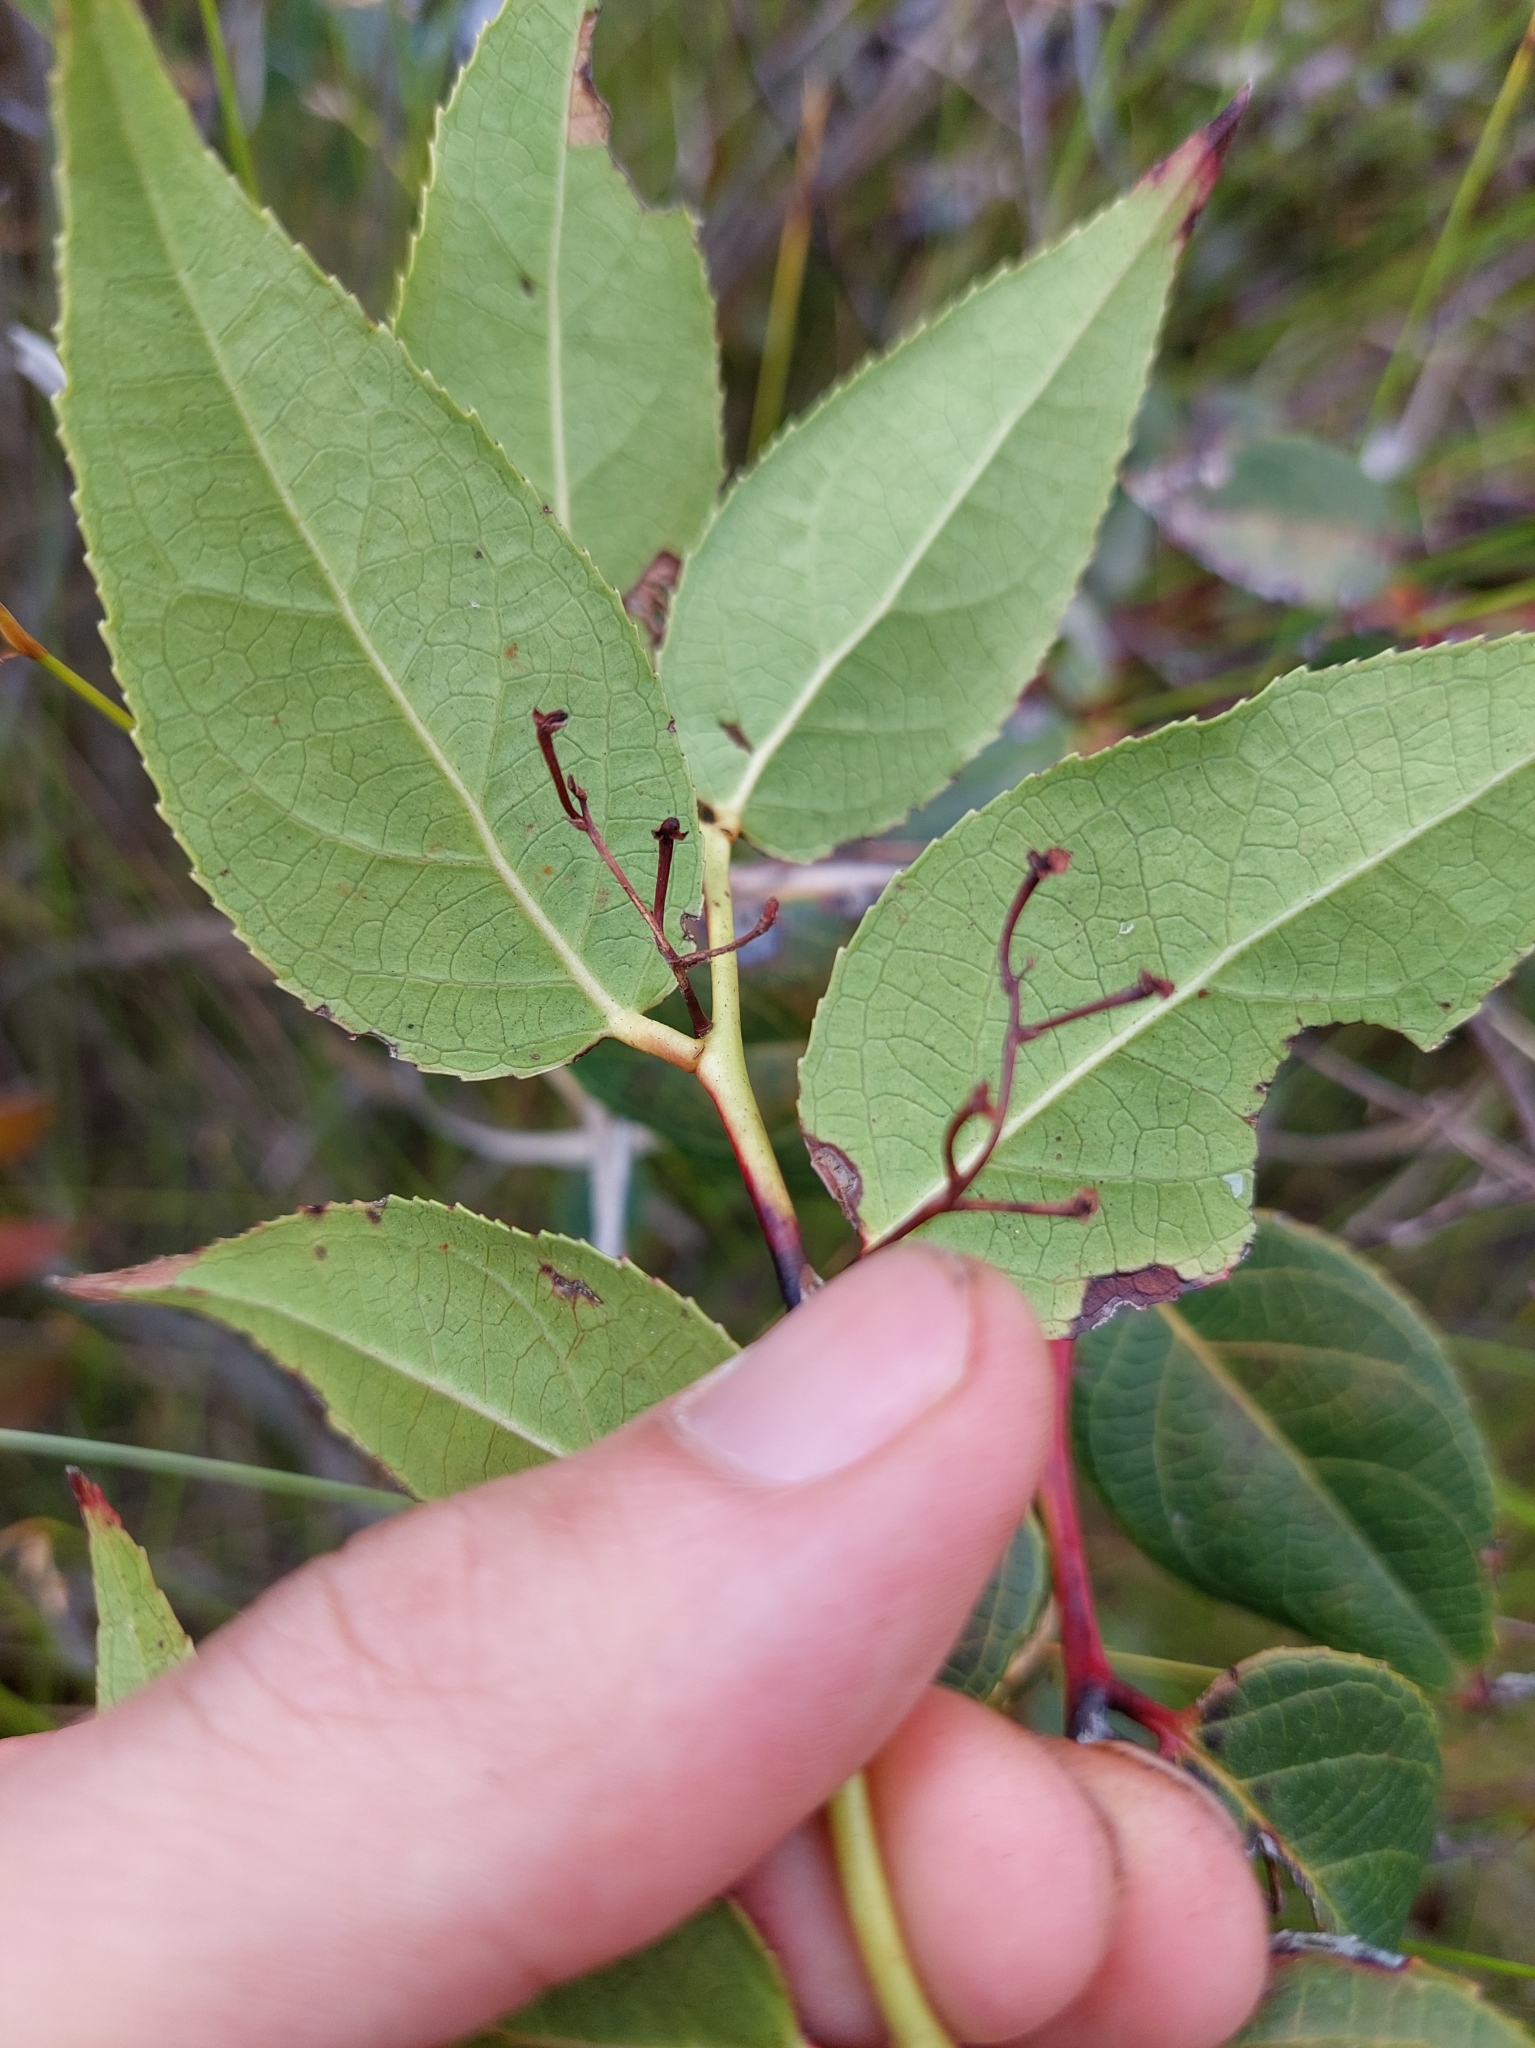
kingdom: Plantae
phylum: Tracheophyta
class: Magnoliopsida
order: Ericales
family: Ericaceae
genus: Gaultheria
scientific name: Gaultheria leucocarpa
